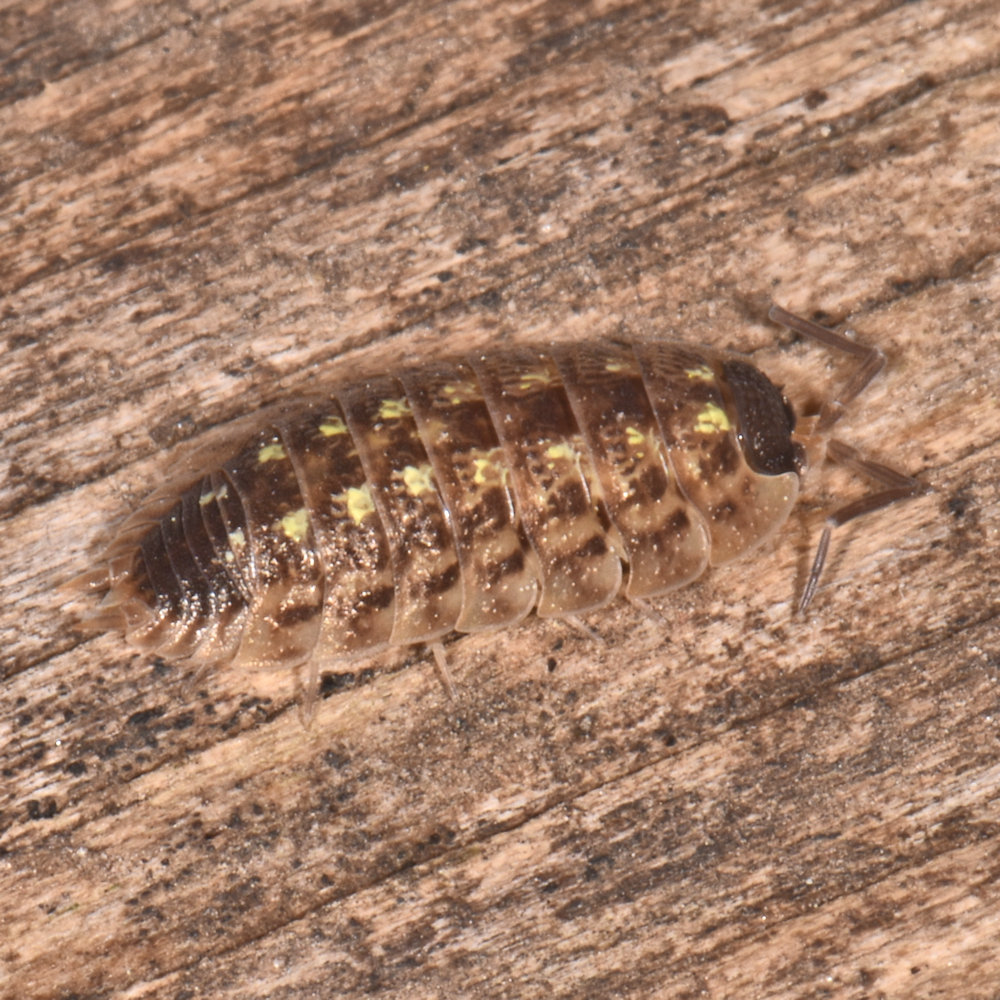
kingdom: Animalia
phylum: Arthropoda
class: Malacostraca
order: Isopoda
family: Porcellionidae
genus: Porcellio
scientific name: Porcellio spinicornis
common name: Painted woodlouse
